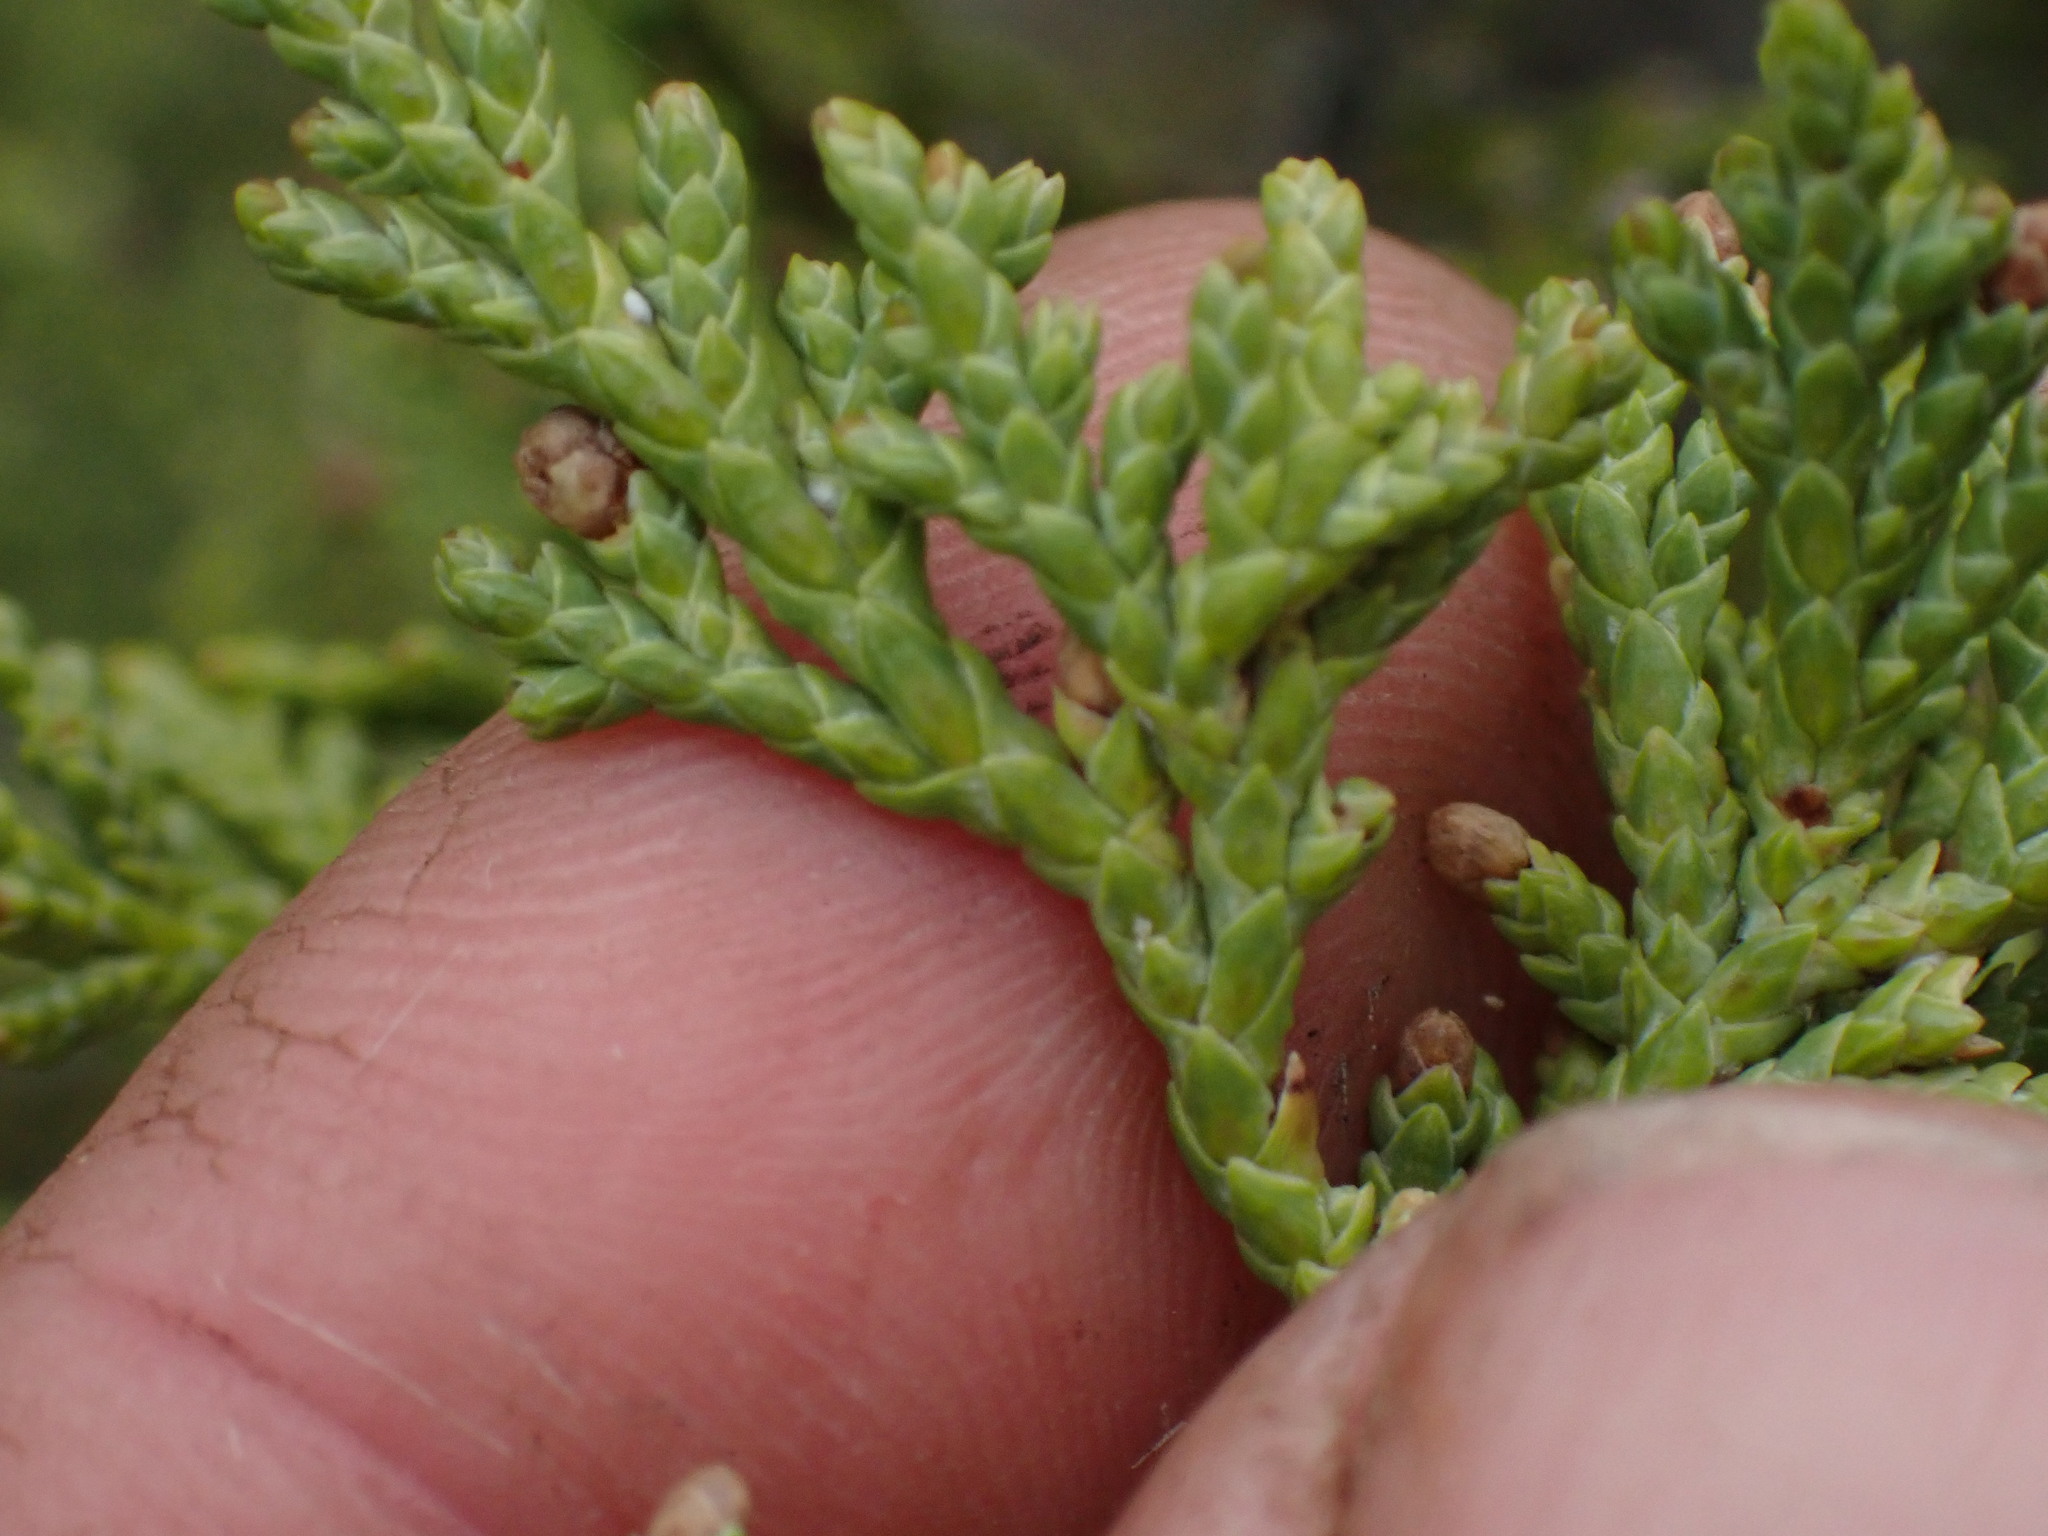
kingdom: Plantae
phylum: Tracheophyta
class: Pinopsida
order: Pinales
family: Cupressaceae
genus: Juniperus
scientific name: Juniperus scopulorum
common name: Rocky mountain juniper
